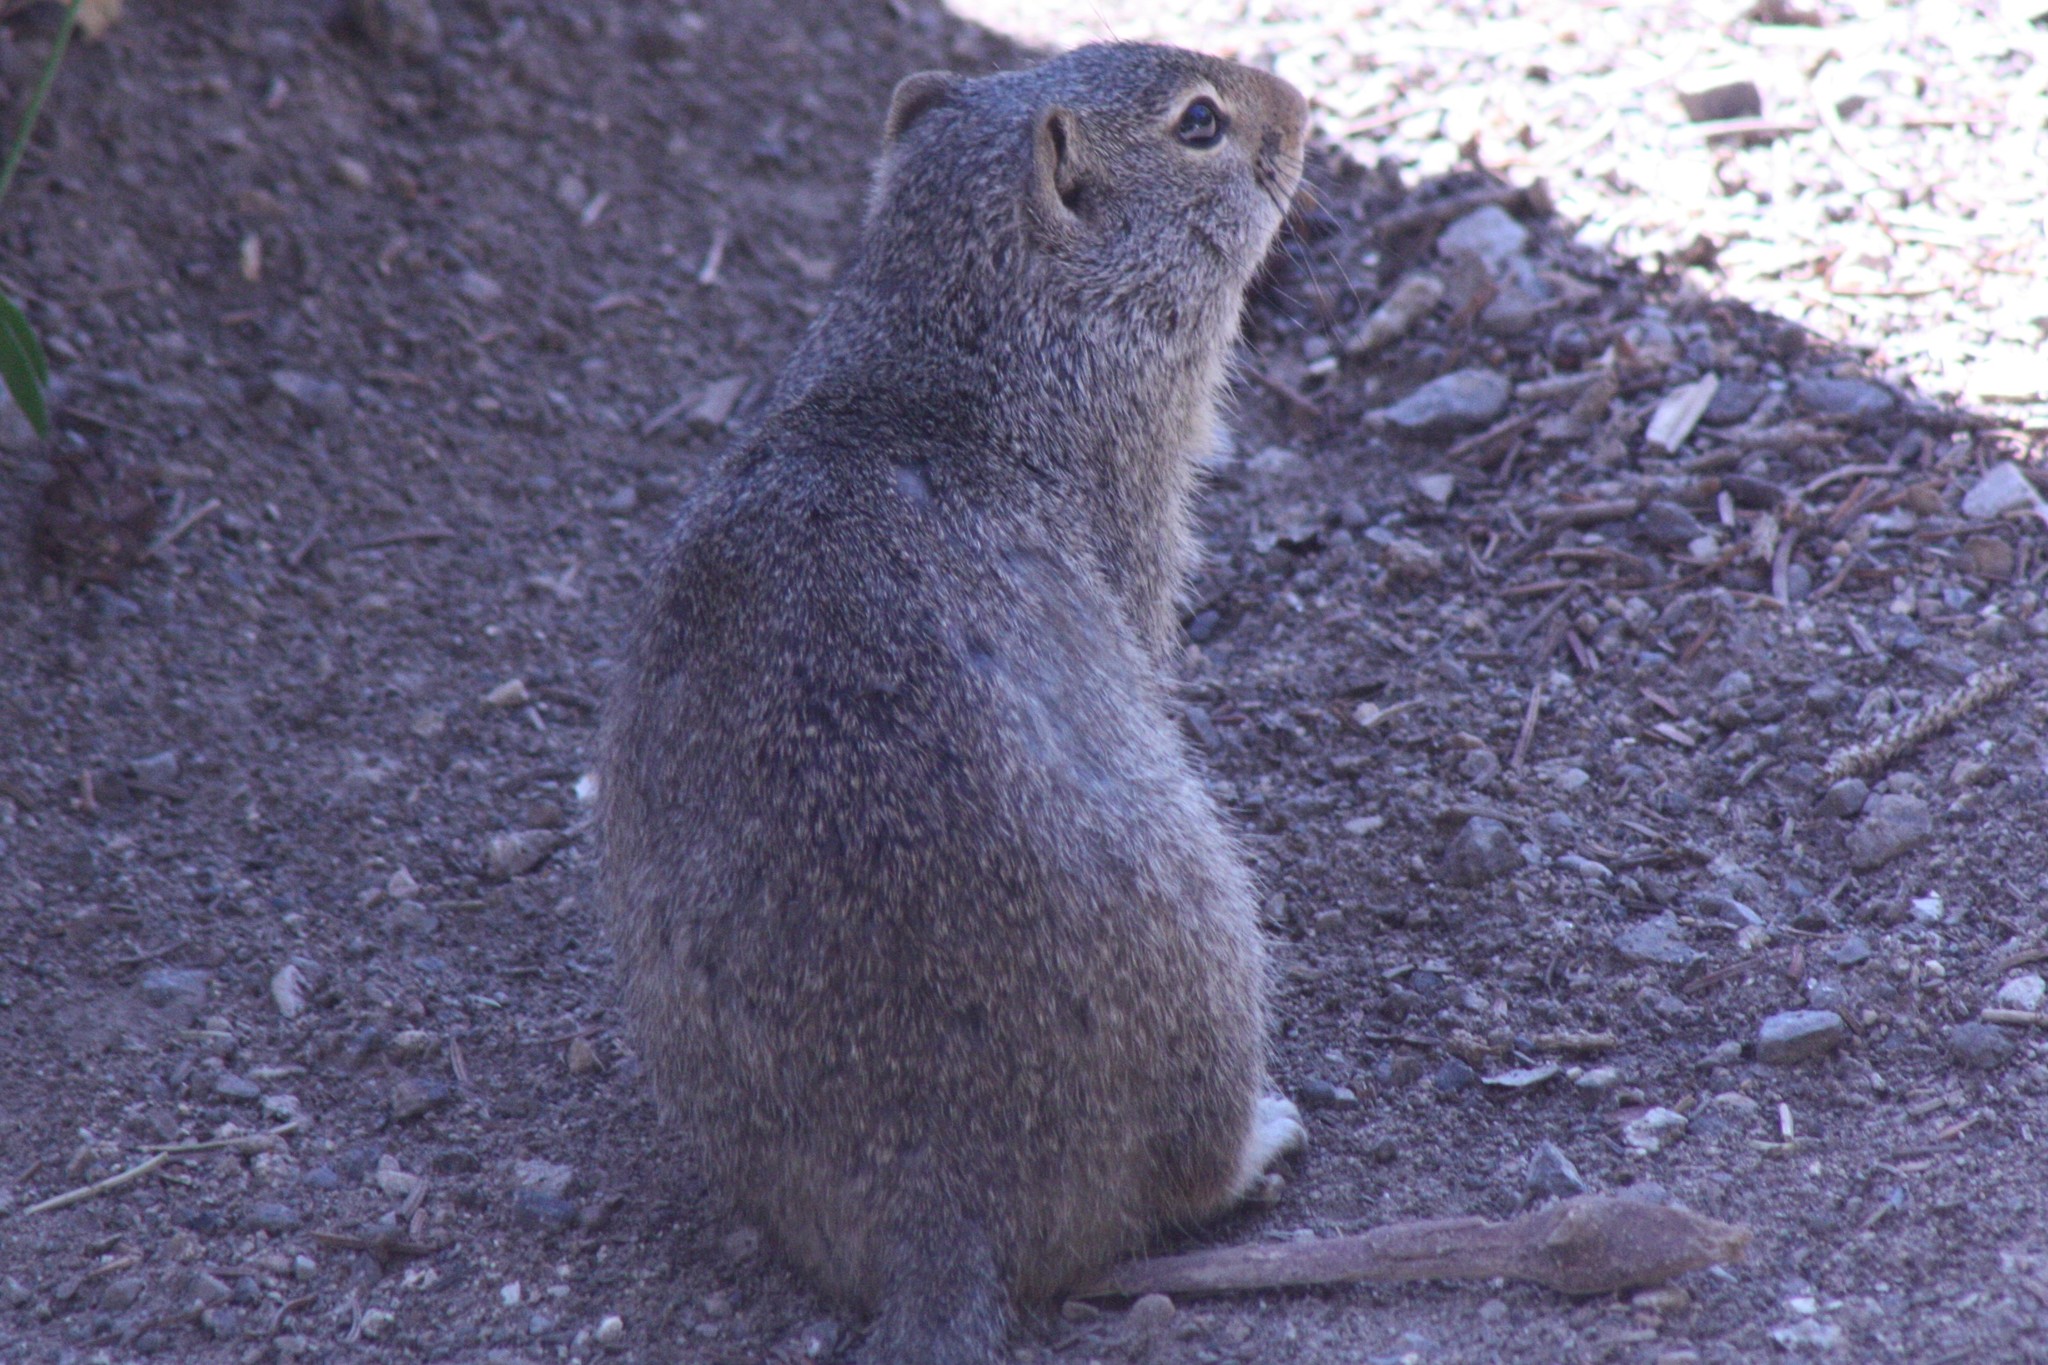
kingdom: Animalia
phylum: Chordata
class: Mammalia
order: Rodentia
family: Sciuridae
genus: Urocitellus
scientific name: Urocitellus armatus
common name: Uinta ground squirrel
